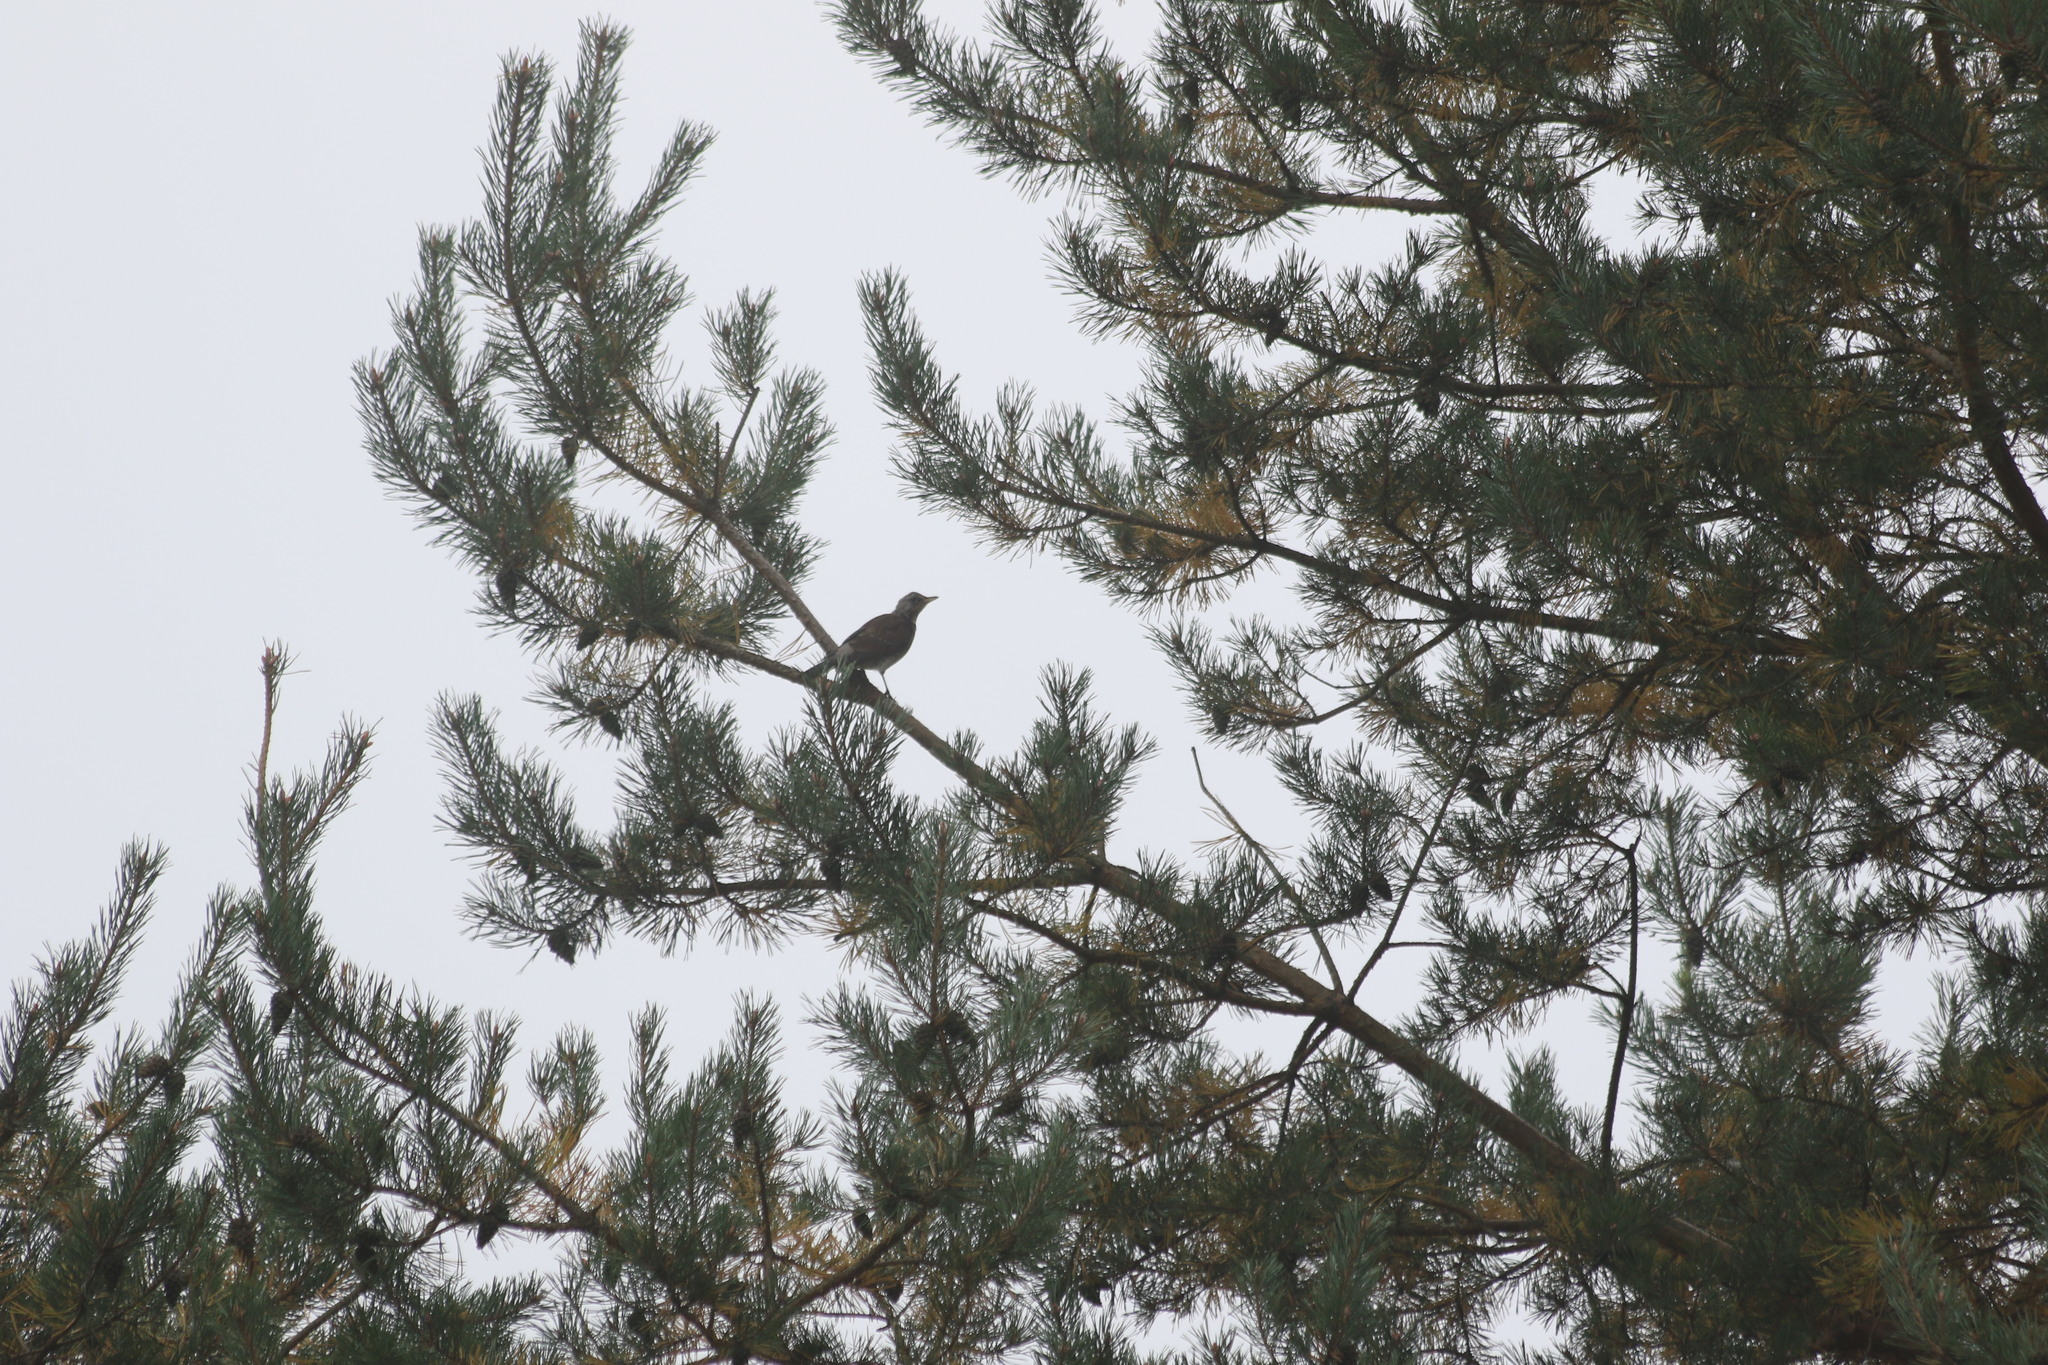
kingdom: Animalia
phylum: Chordata
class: Aves
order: Passeriformes
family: Turdidae
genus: Turdus
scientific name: Turdus pilaris
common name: Fieldfare
